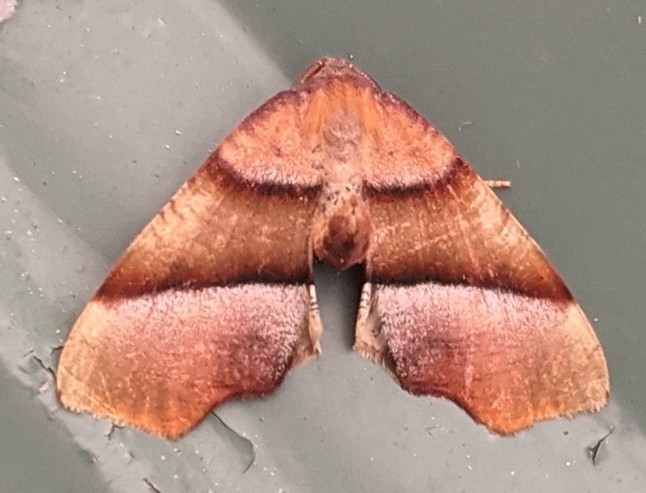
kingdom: Animalia
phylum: Arthropoda
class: Insecta
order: Lepidoptera
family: Geometridae
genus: Plagodis
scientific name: Plagodis phlogosaria
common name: Straight-lined plagodis
